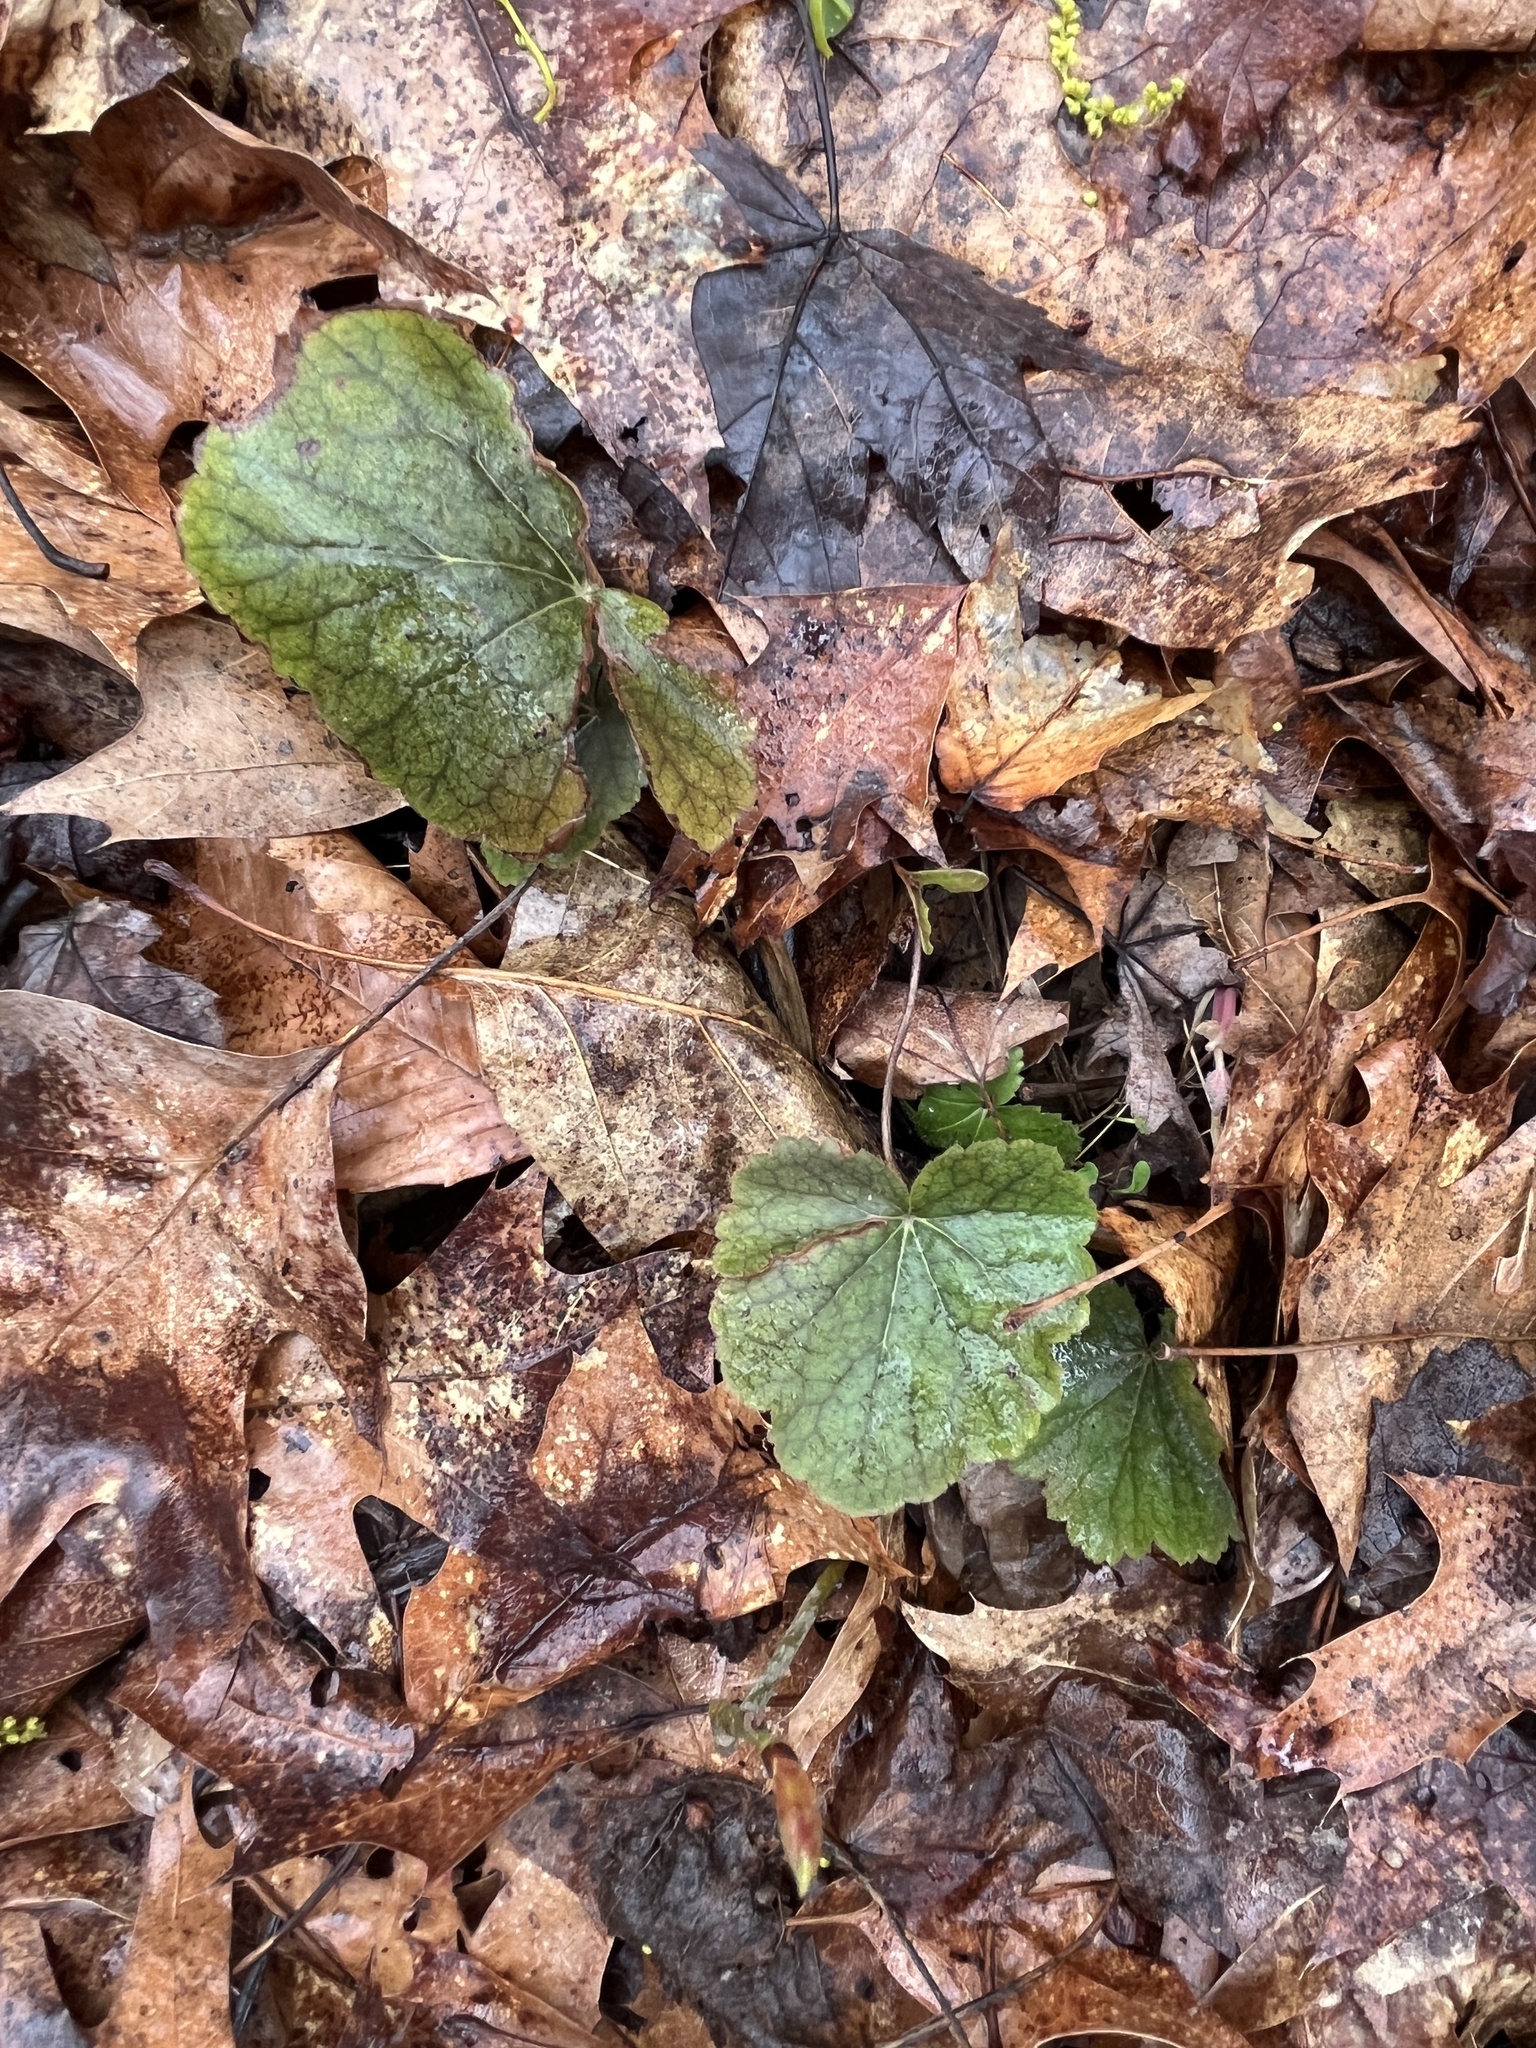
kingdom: Plantae
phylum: Tracheophyta
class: Magnoliopsida
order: Saxifragales
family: Saxifragaceae
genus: Tiarella
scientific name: Tiarella stolonifera
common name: Stoloniferous foamflower
